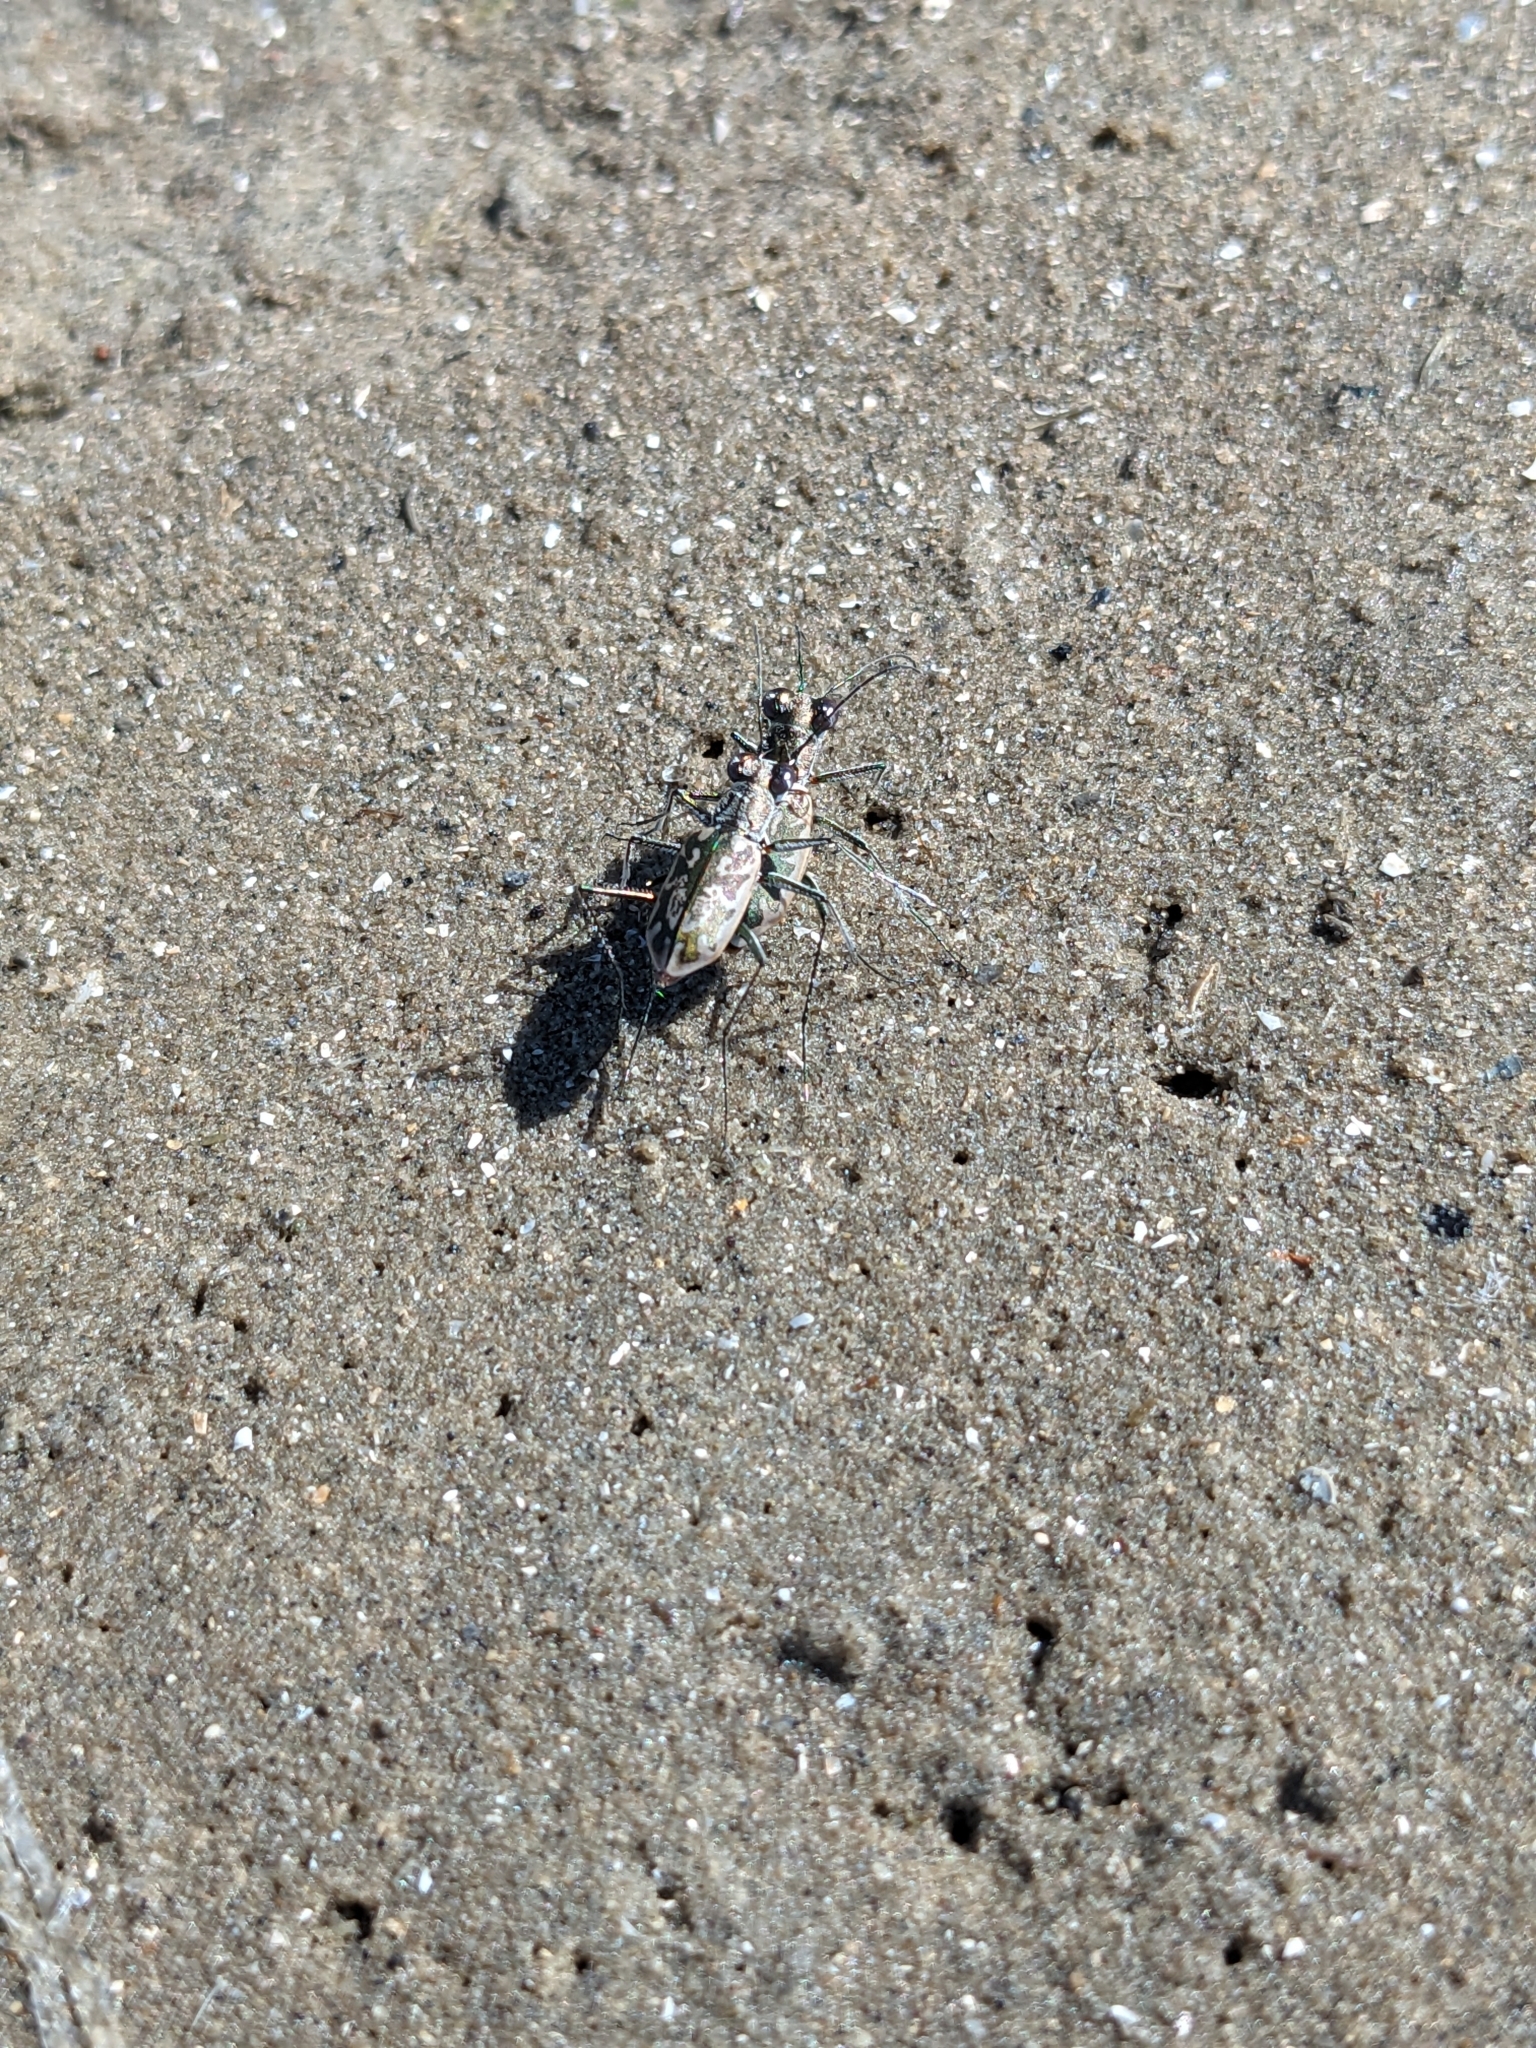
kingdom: Animalia
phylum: Arthropoda
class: Insecta
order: Coleoptera
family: Carabidae
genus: Ellipsoptera
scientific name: Ellipsoptera hamata
